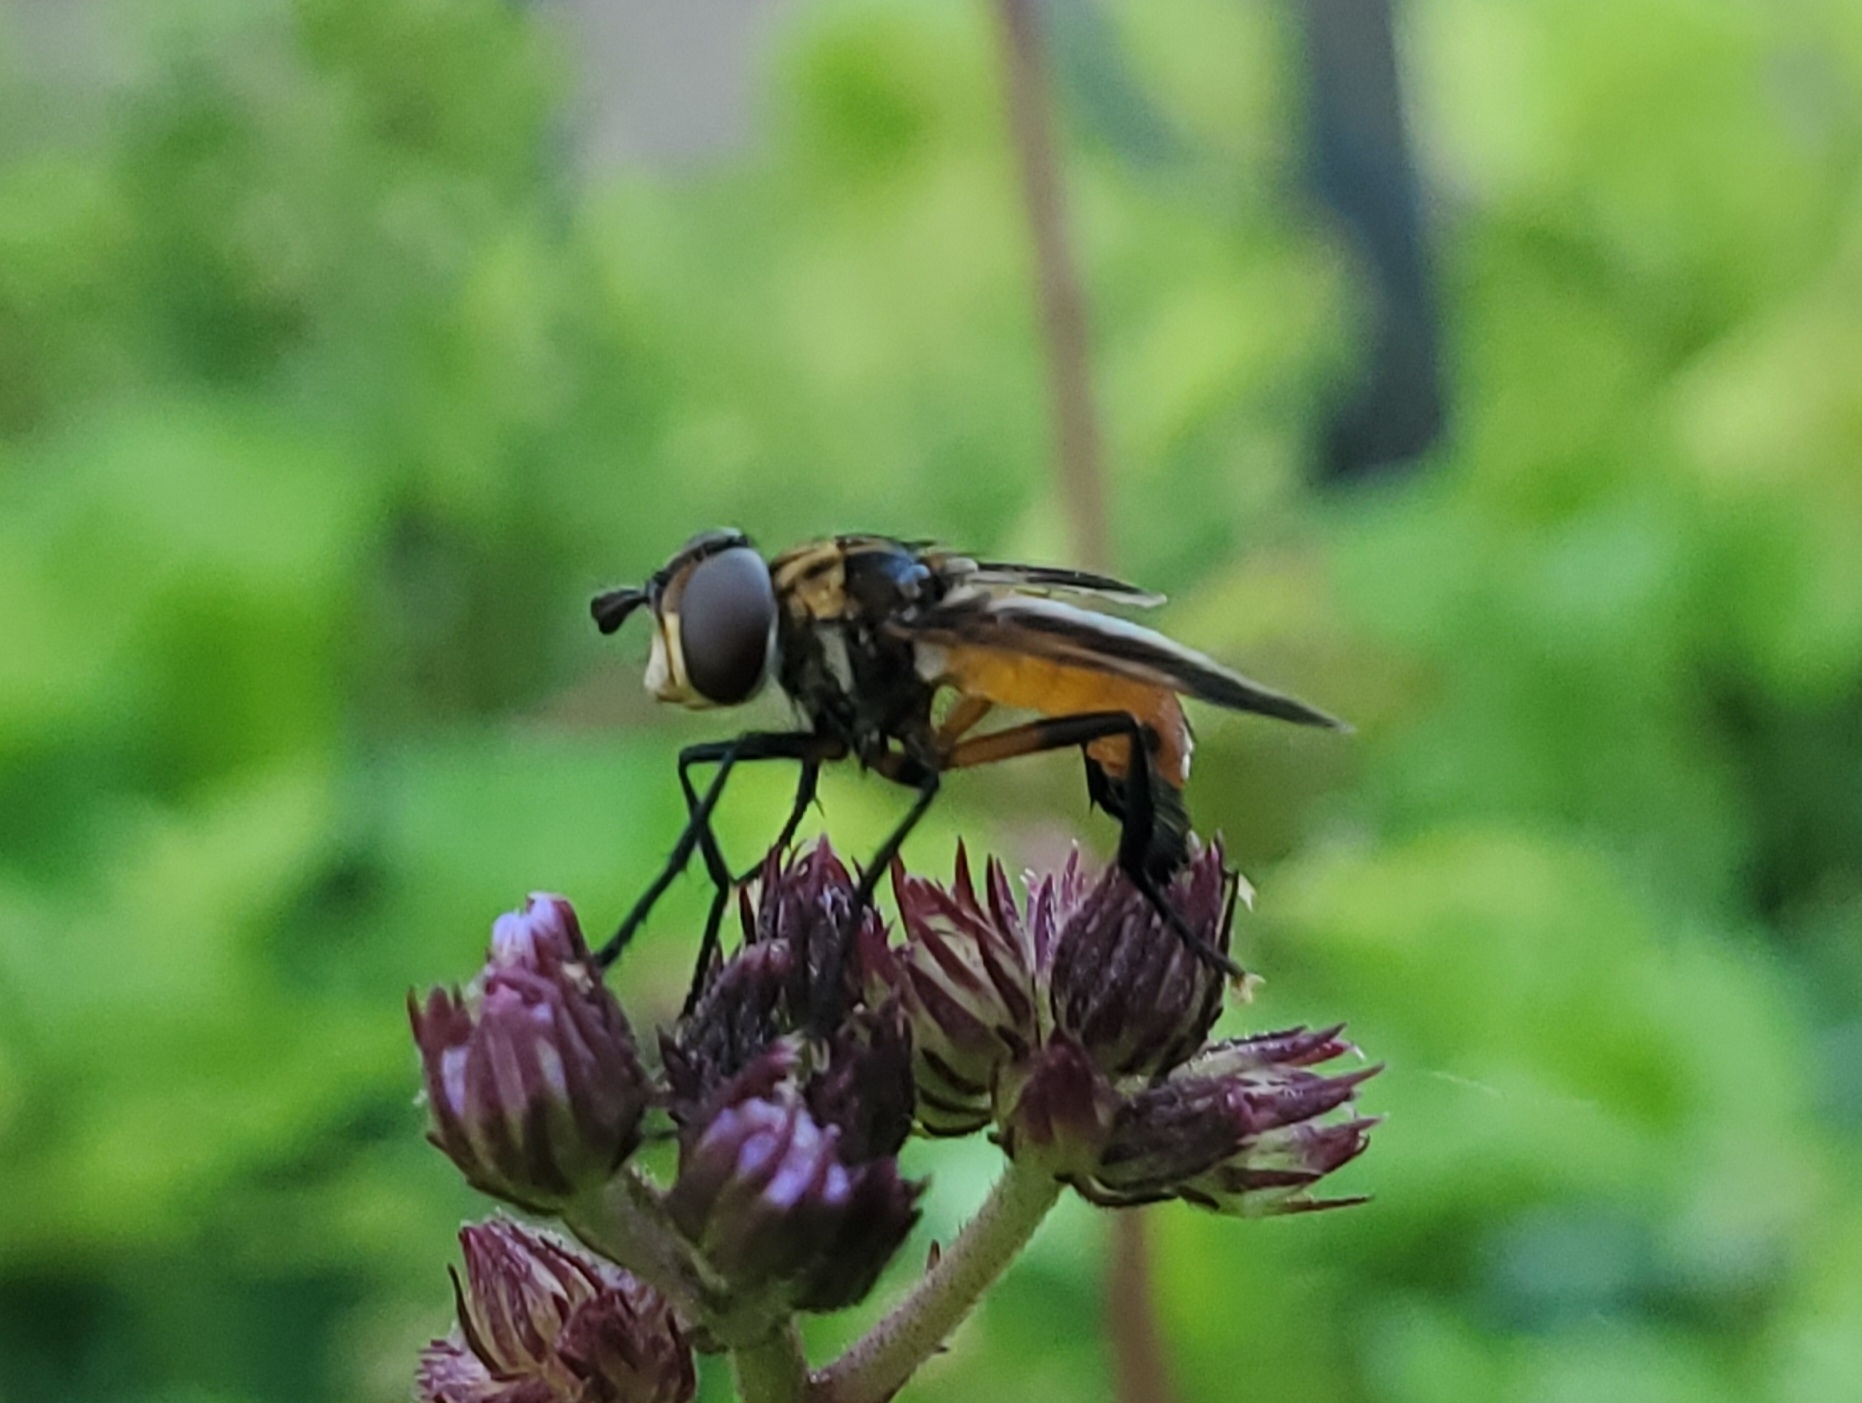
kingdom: Animalia
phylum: Arthropoda
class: Insecta
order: Diptera
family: Tachinidae
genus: Trichopoda
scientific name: Trichopoda pennipes
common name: Tachinid fly
